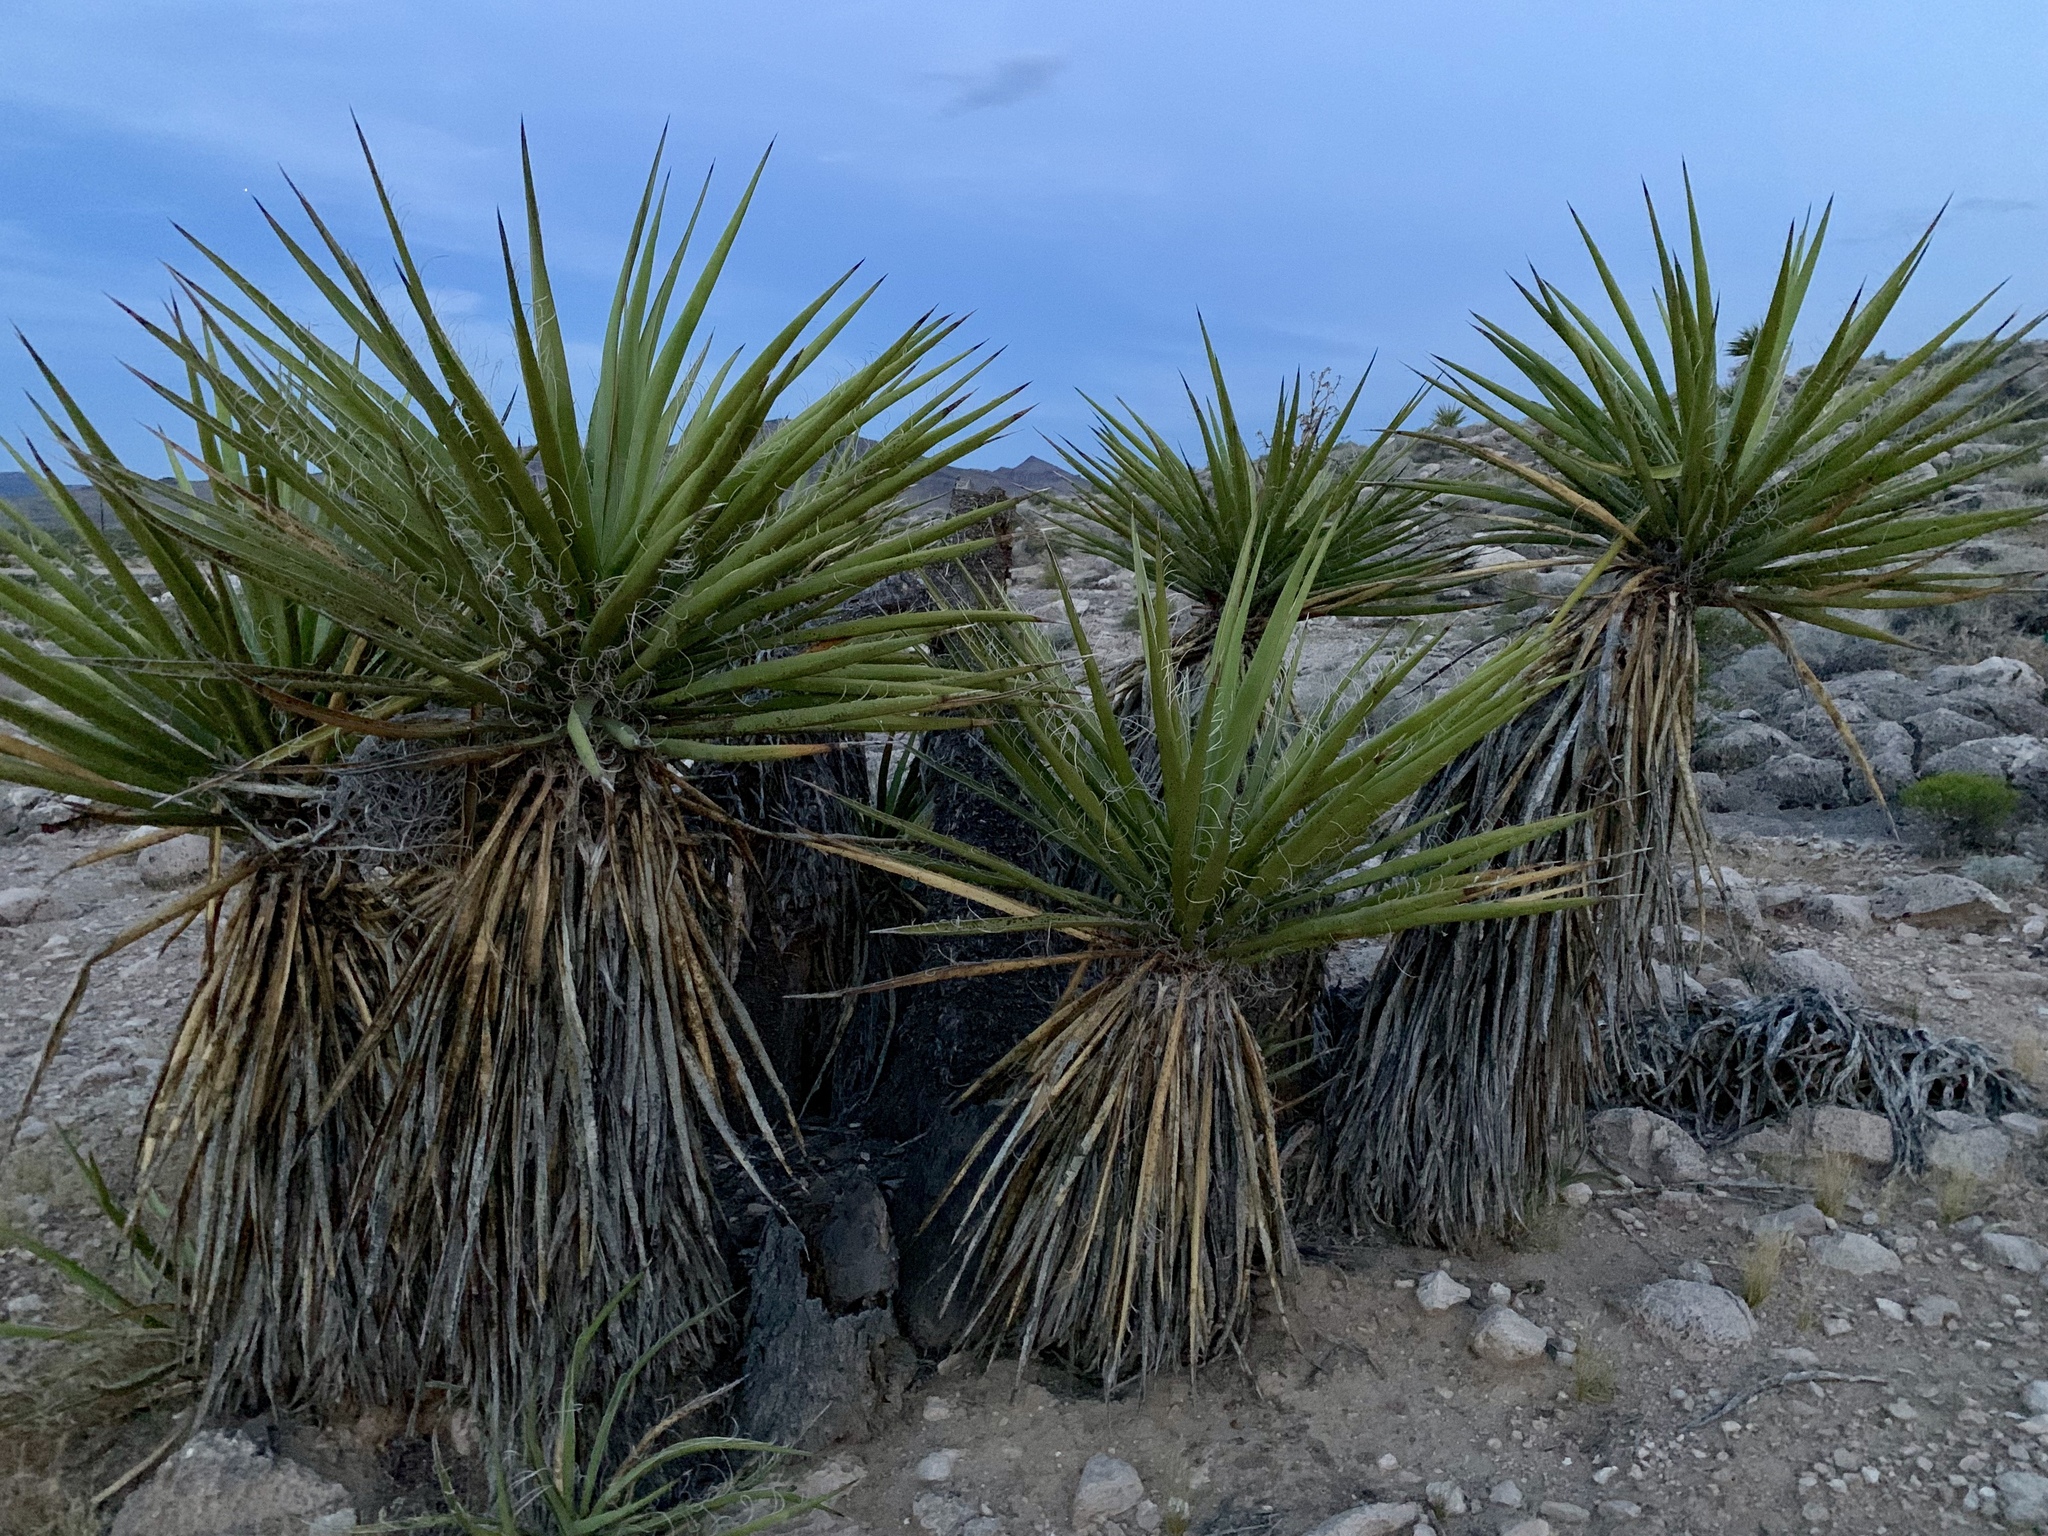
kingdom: Plantae
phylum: Tracheophyta
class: Liliopsida
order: Asparagales
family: Asparagaceae
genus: Yucca
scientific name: Yucca schidigera
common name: Mojave yucca
